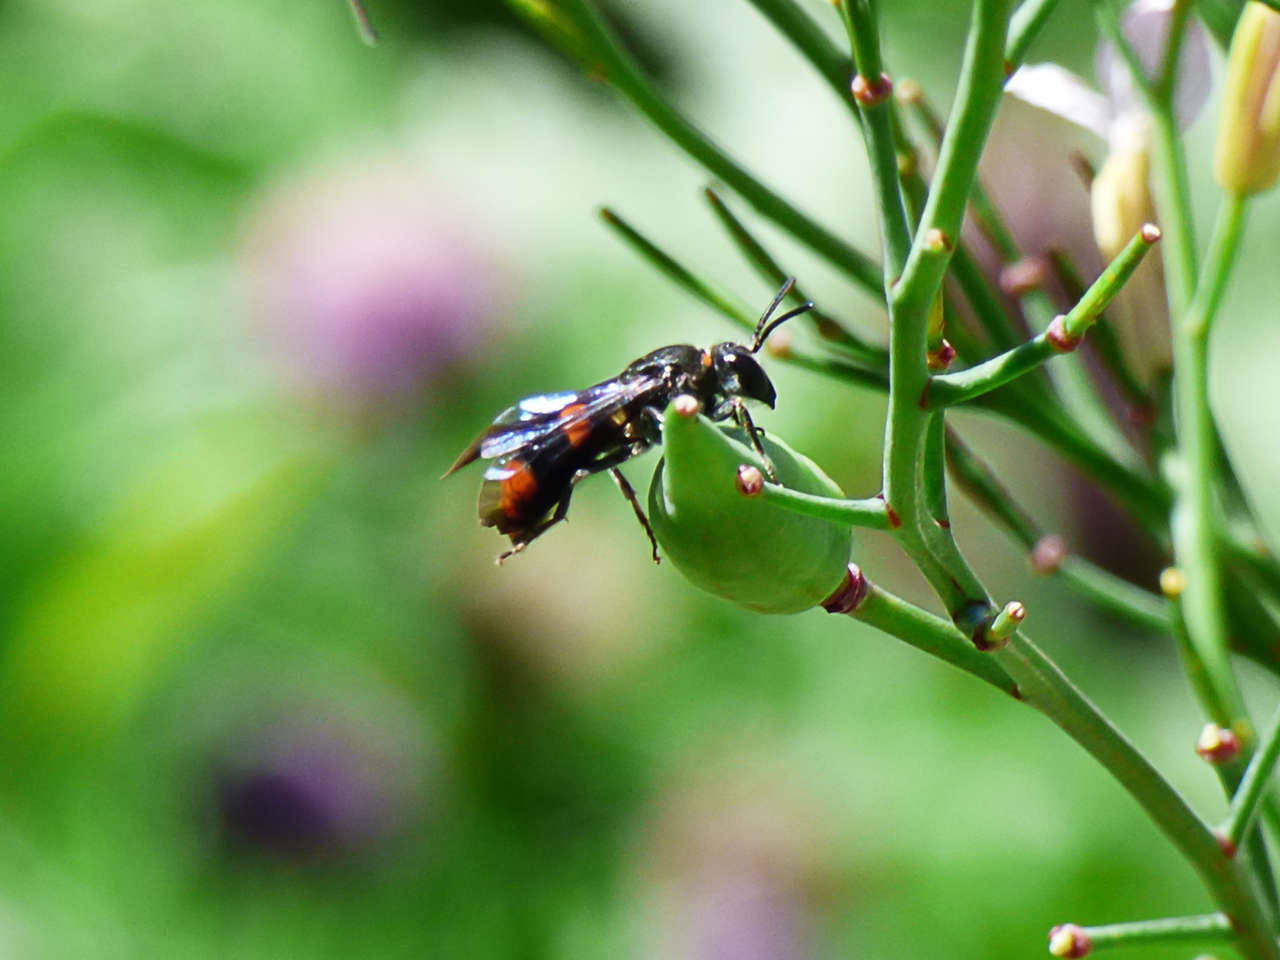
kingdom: Animalia
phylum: Arthropoda
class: Insecta
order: Hymenoptera
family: Colletidae
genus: Hyleoides
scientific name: Hyleoides concinna
